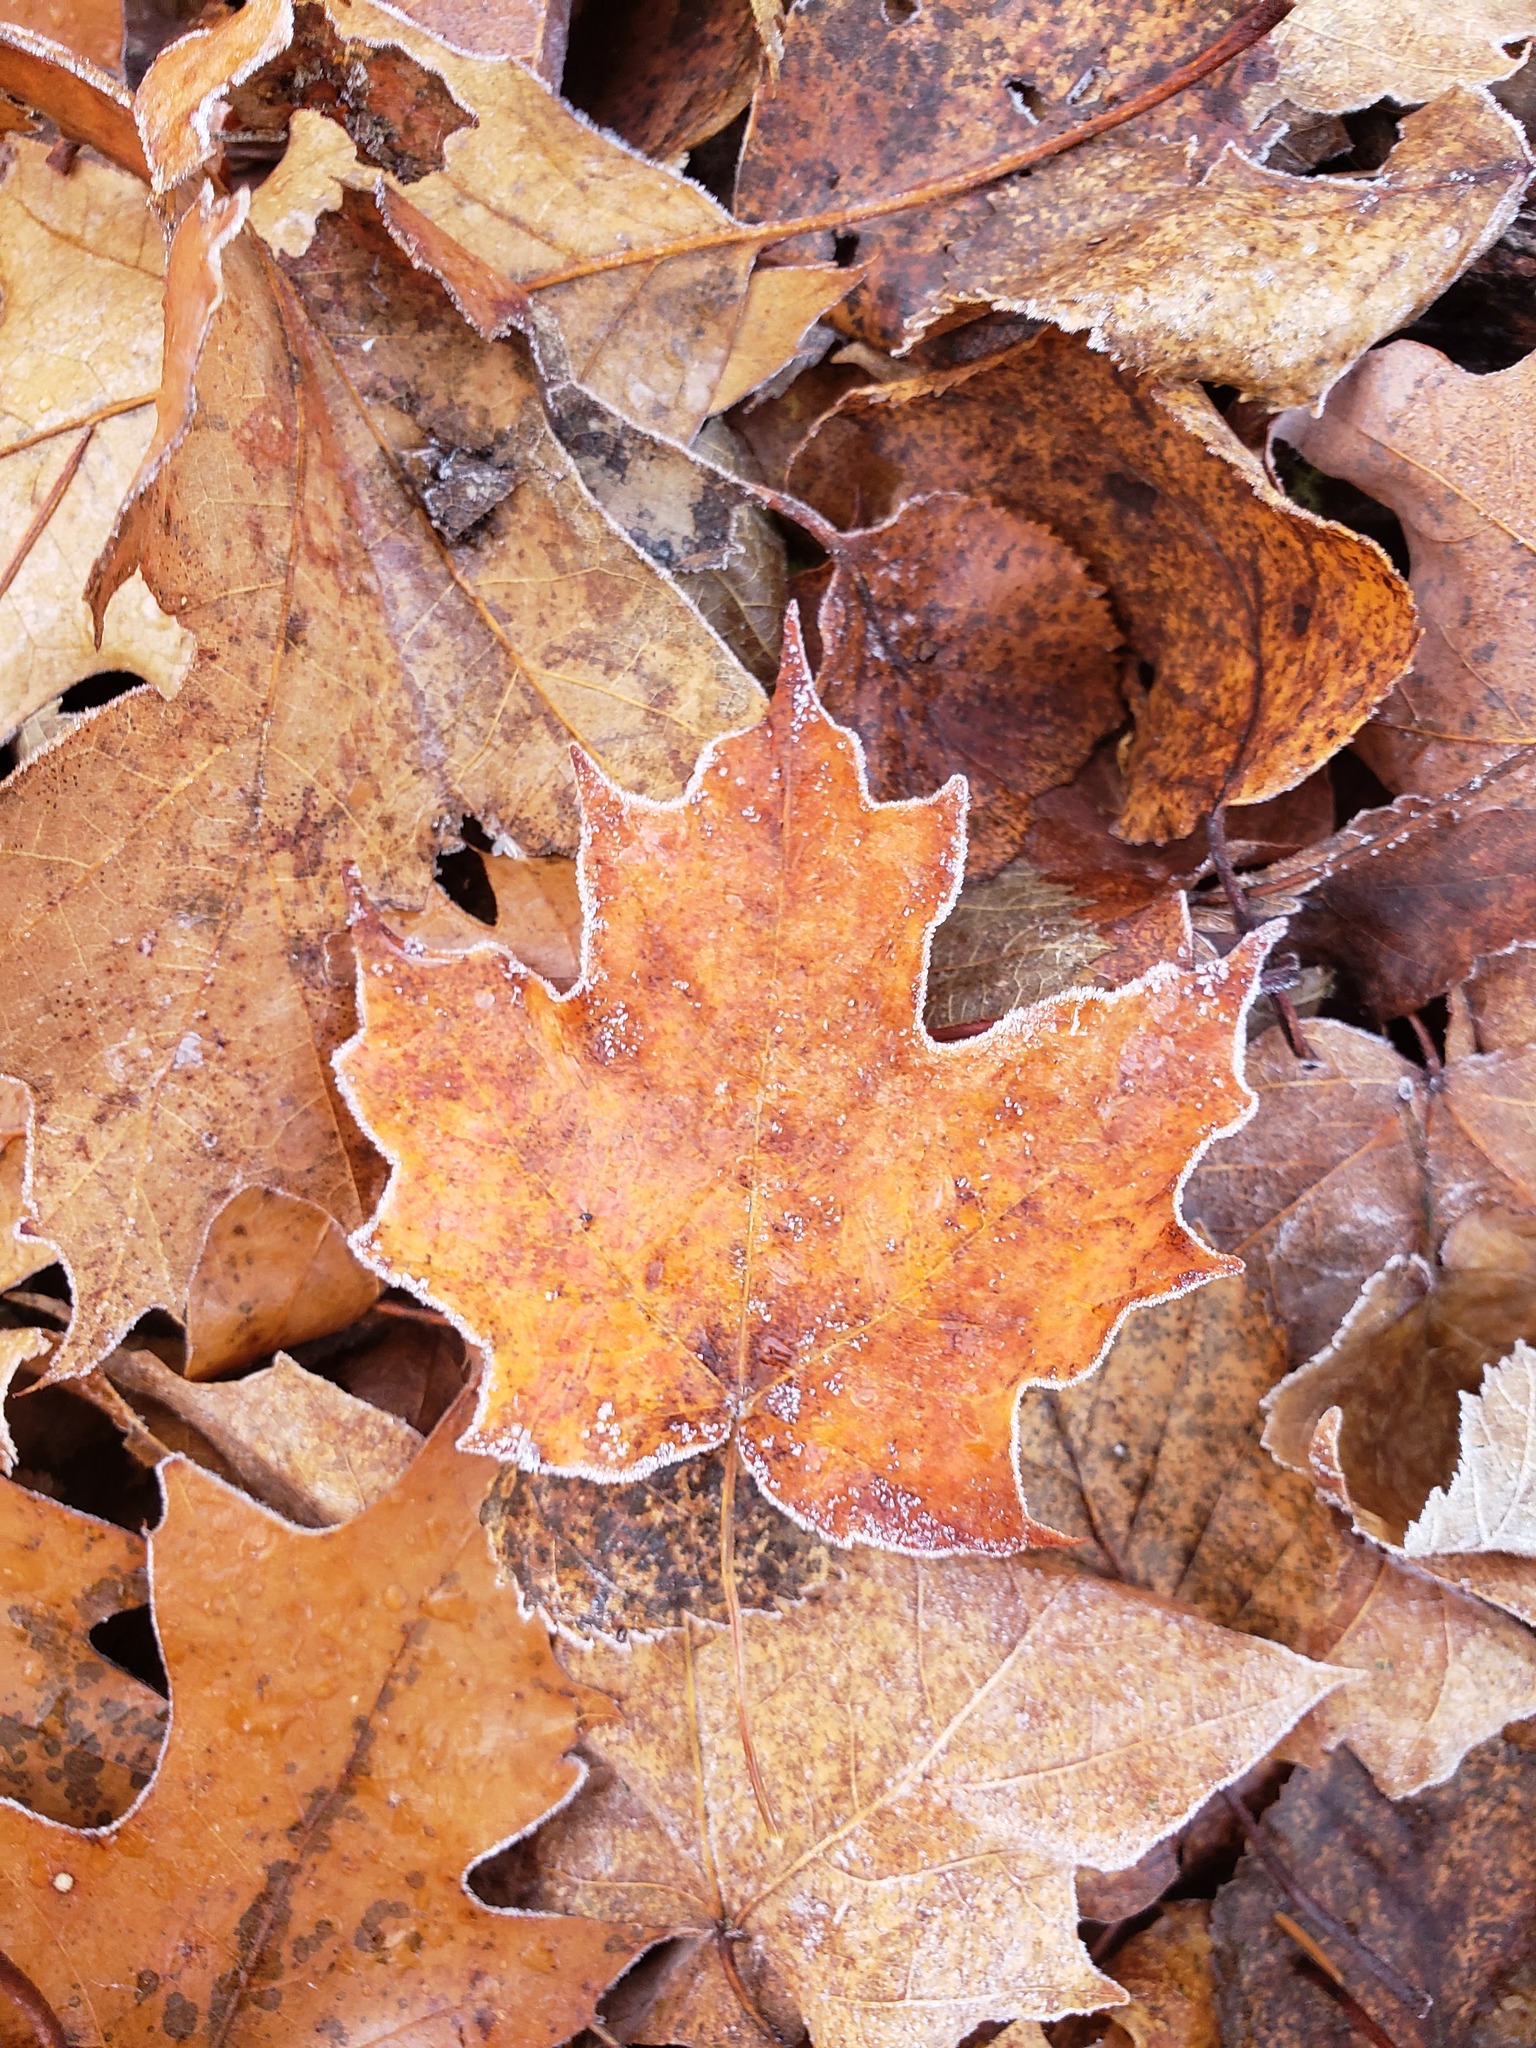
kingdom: Plantae
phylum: Tracheophyta
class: Magnoliopsida
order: Sapindales
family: Sapindaceae
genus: Acer
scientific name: Acer saccharum
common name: Sugar maple
